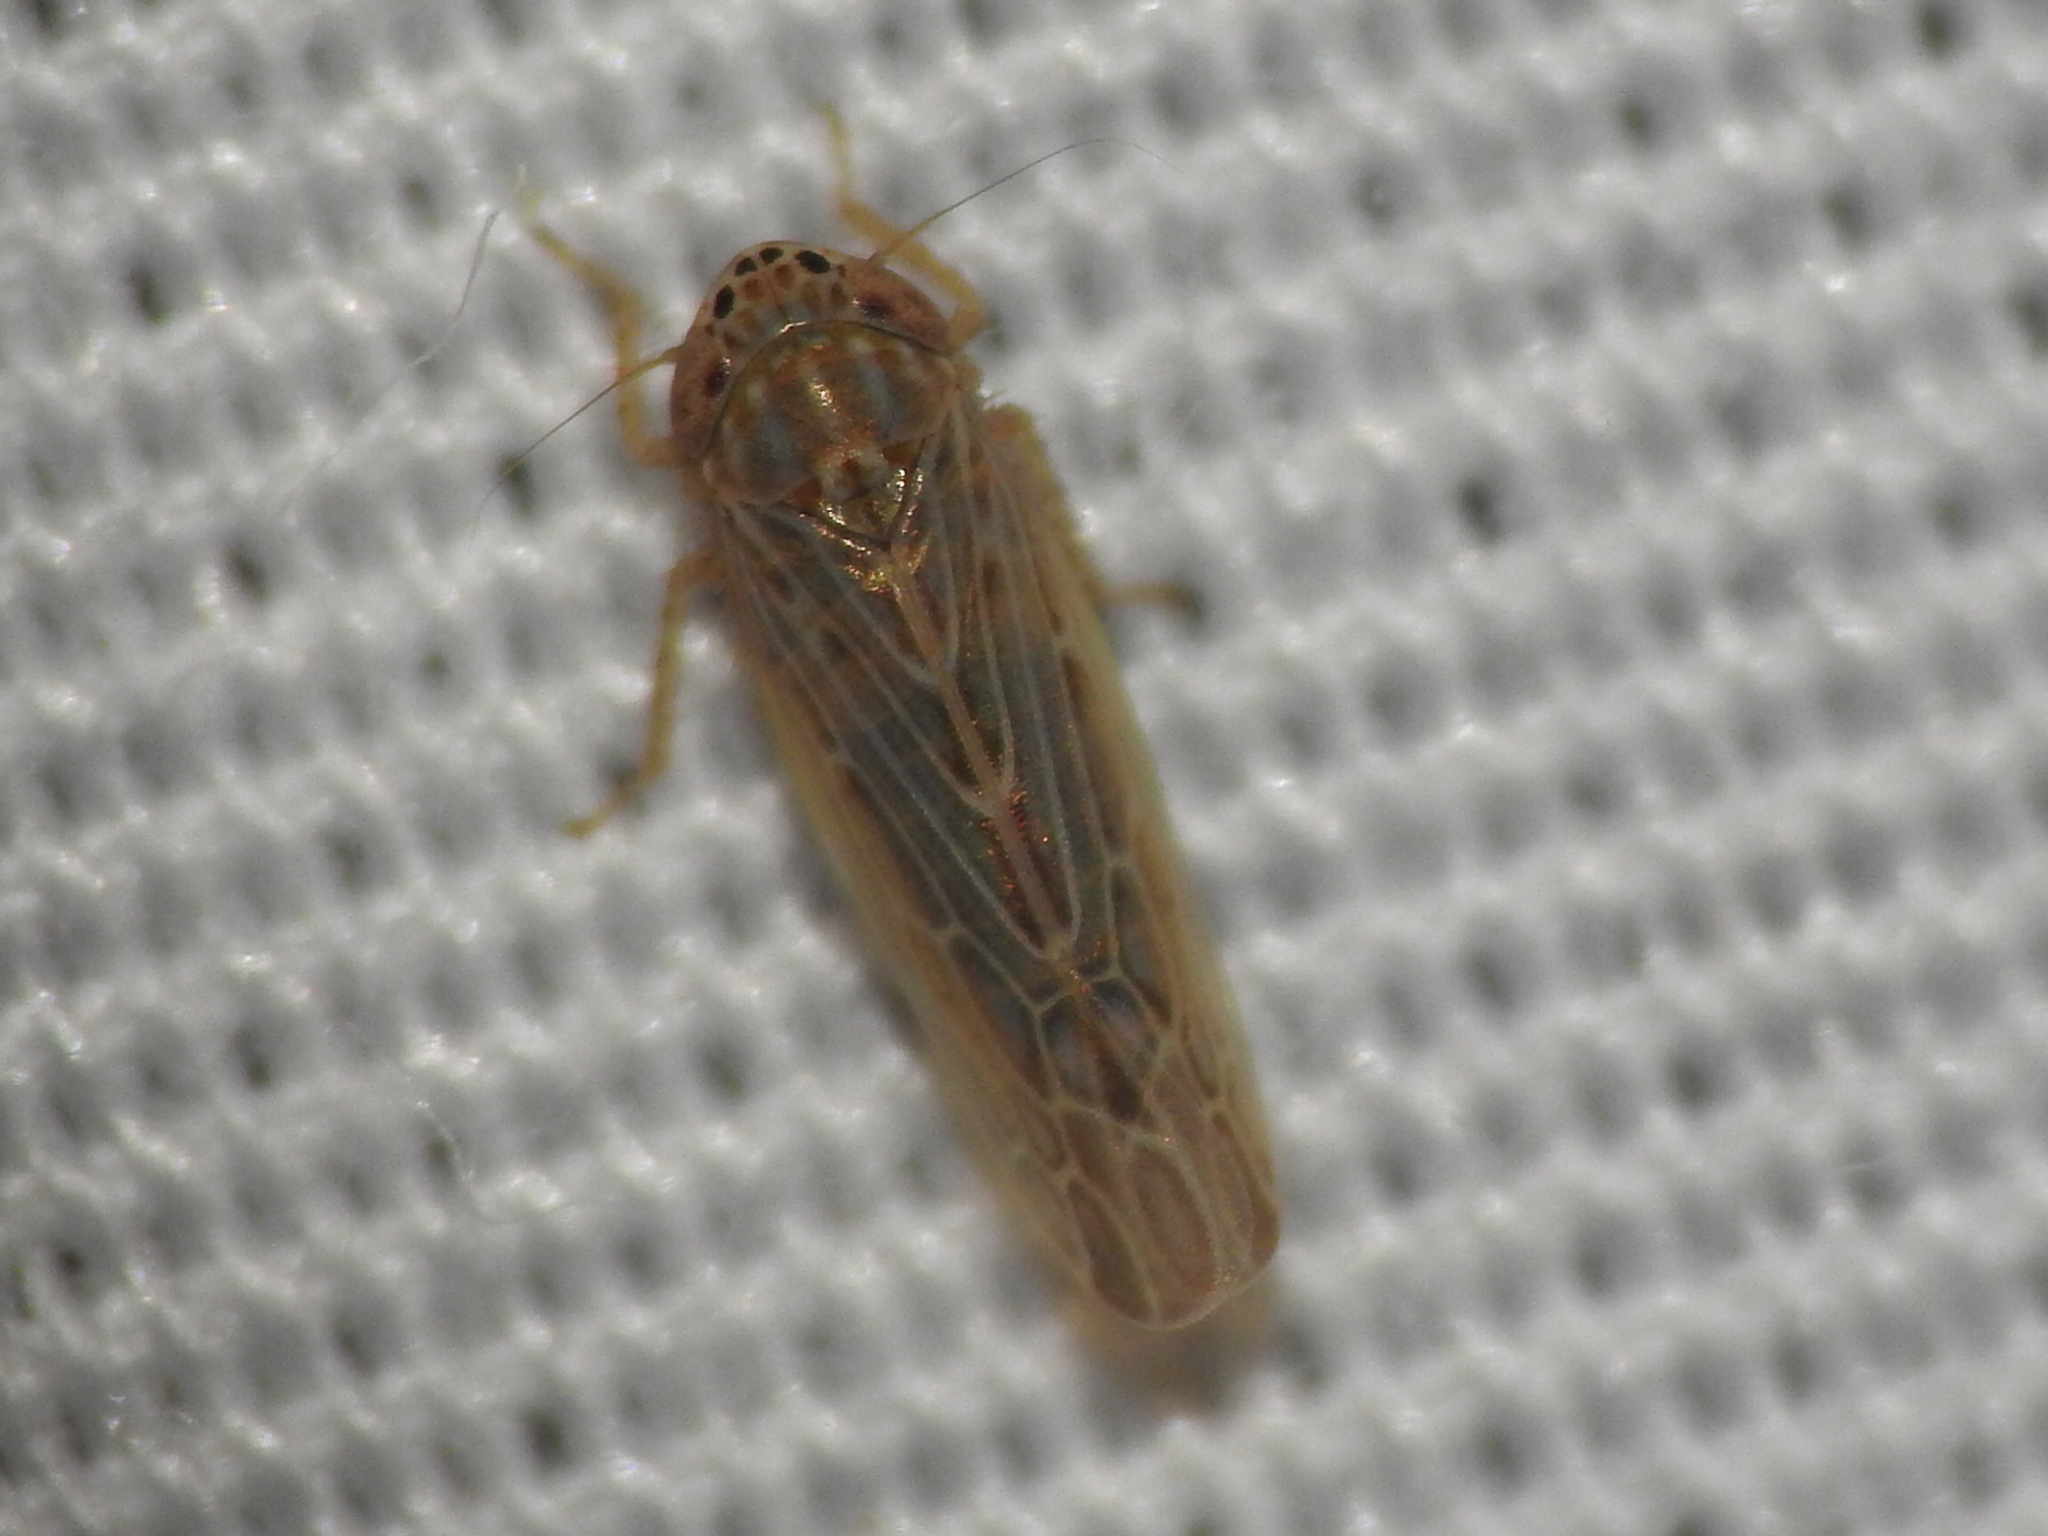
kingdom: Animalia
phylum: Arthropoda
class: Insecta
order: Hemiptera
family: Cicadellidae
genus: Graminella
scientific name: Graminella sonora
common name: Lesser lawn leafhopper
